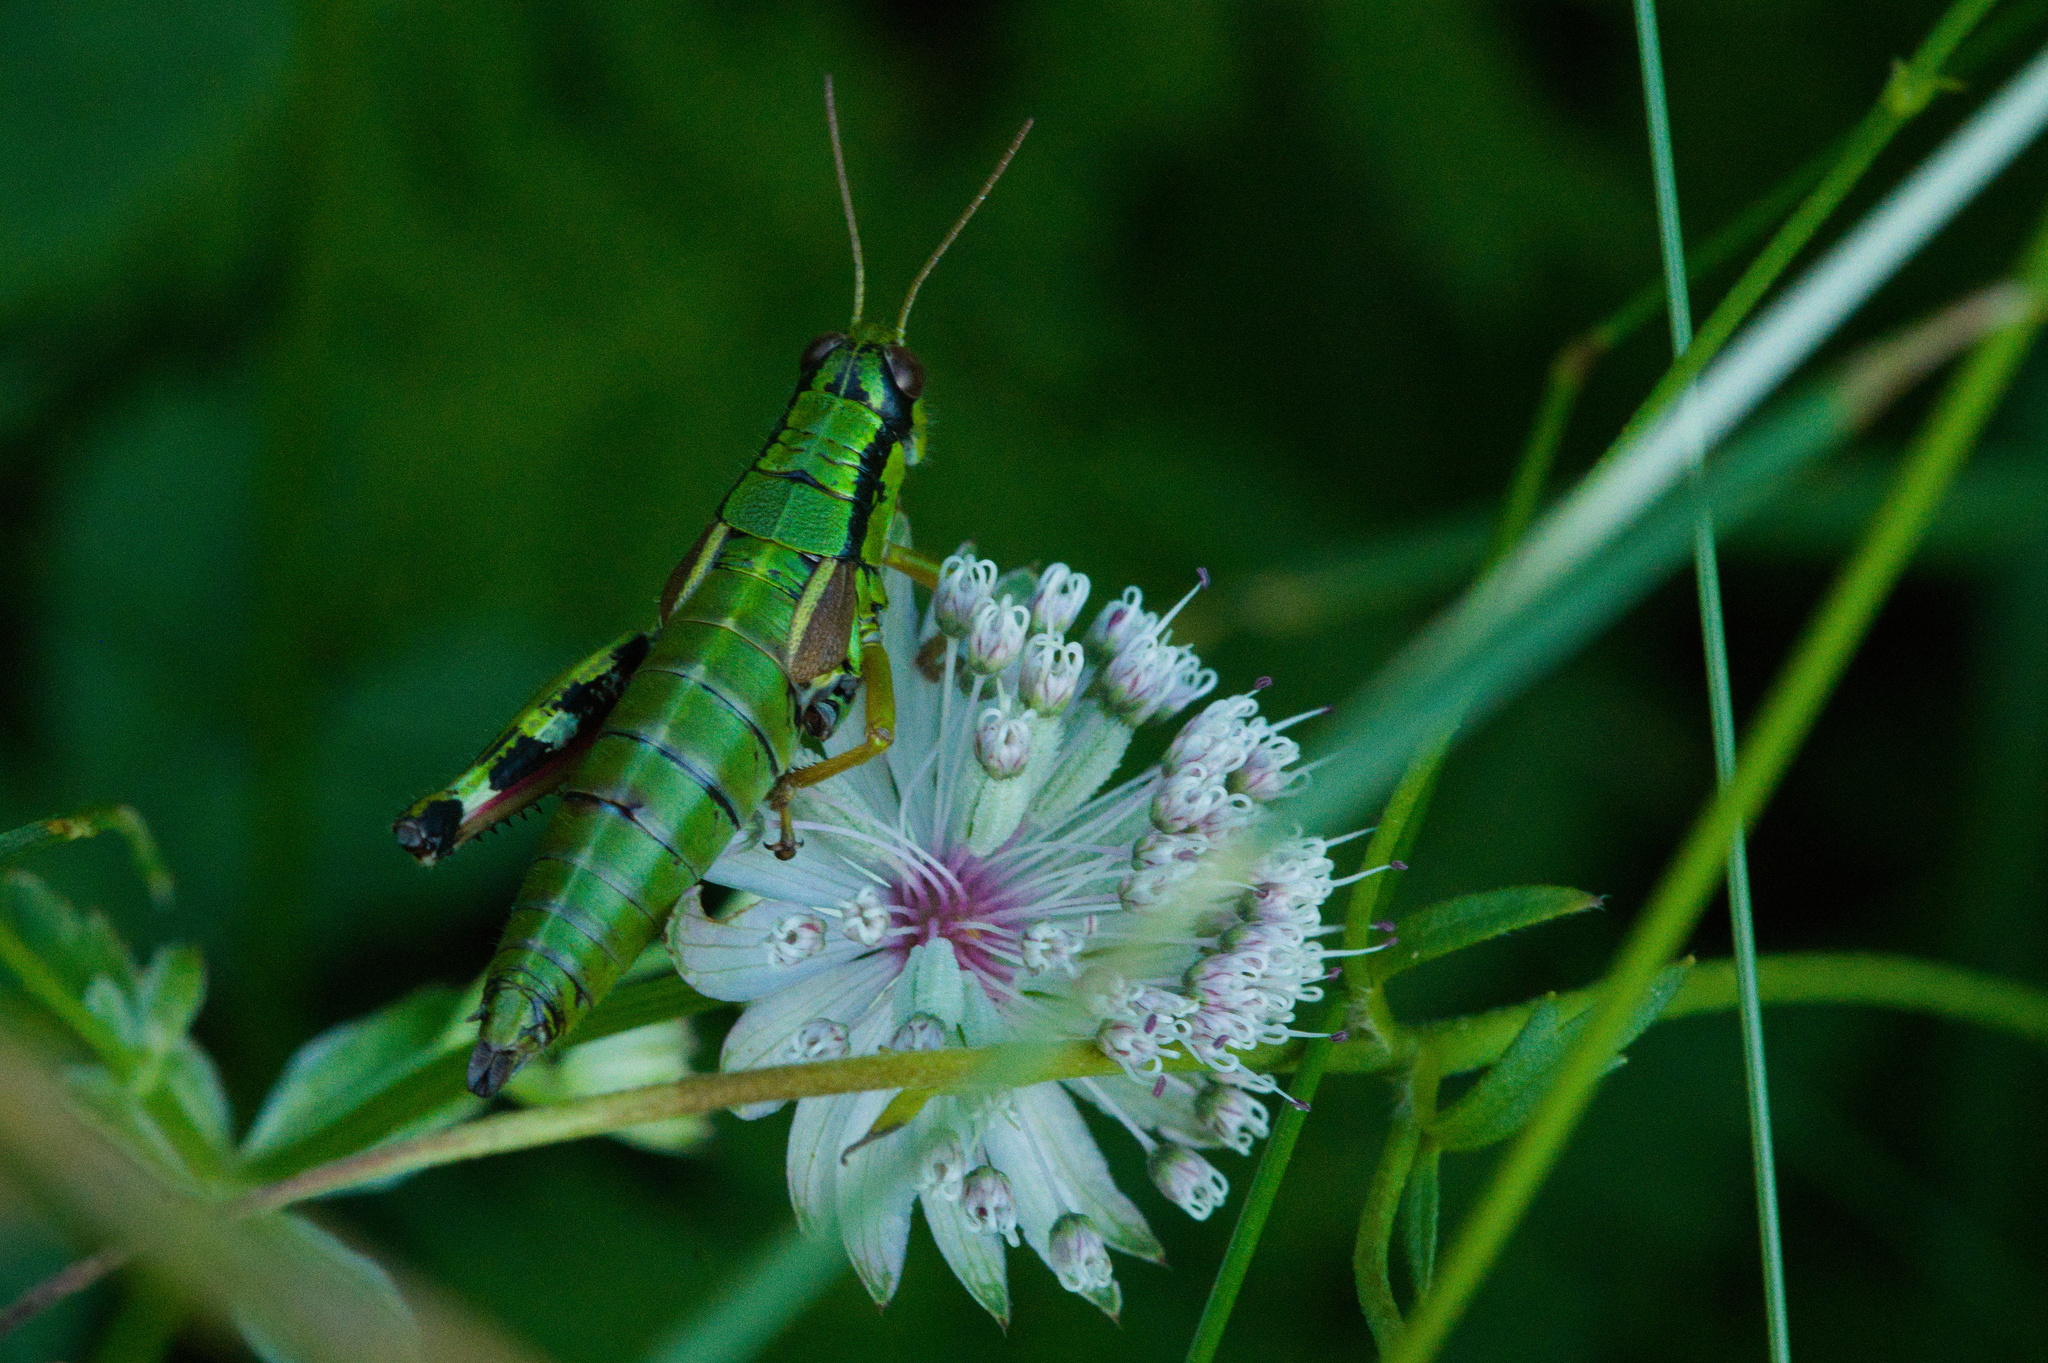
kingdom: Animalia
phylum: Arthropoda
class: Insecta
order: Orthoptera
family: Acrididae
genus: Miramella
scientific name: Miramella alpina
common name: Green mountain grasshopper
